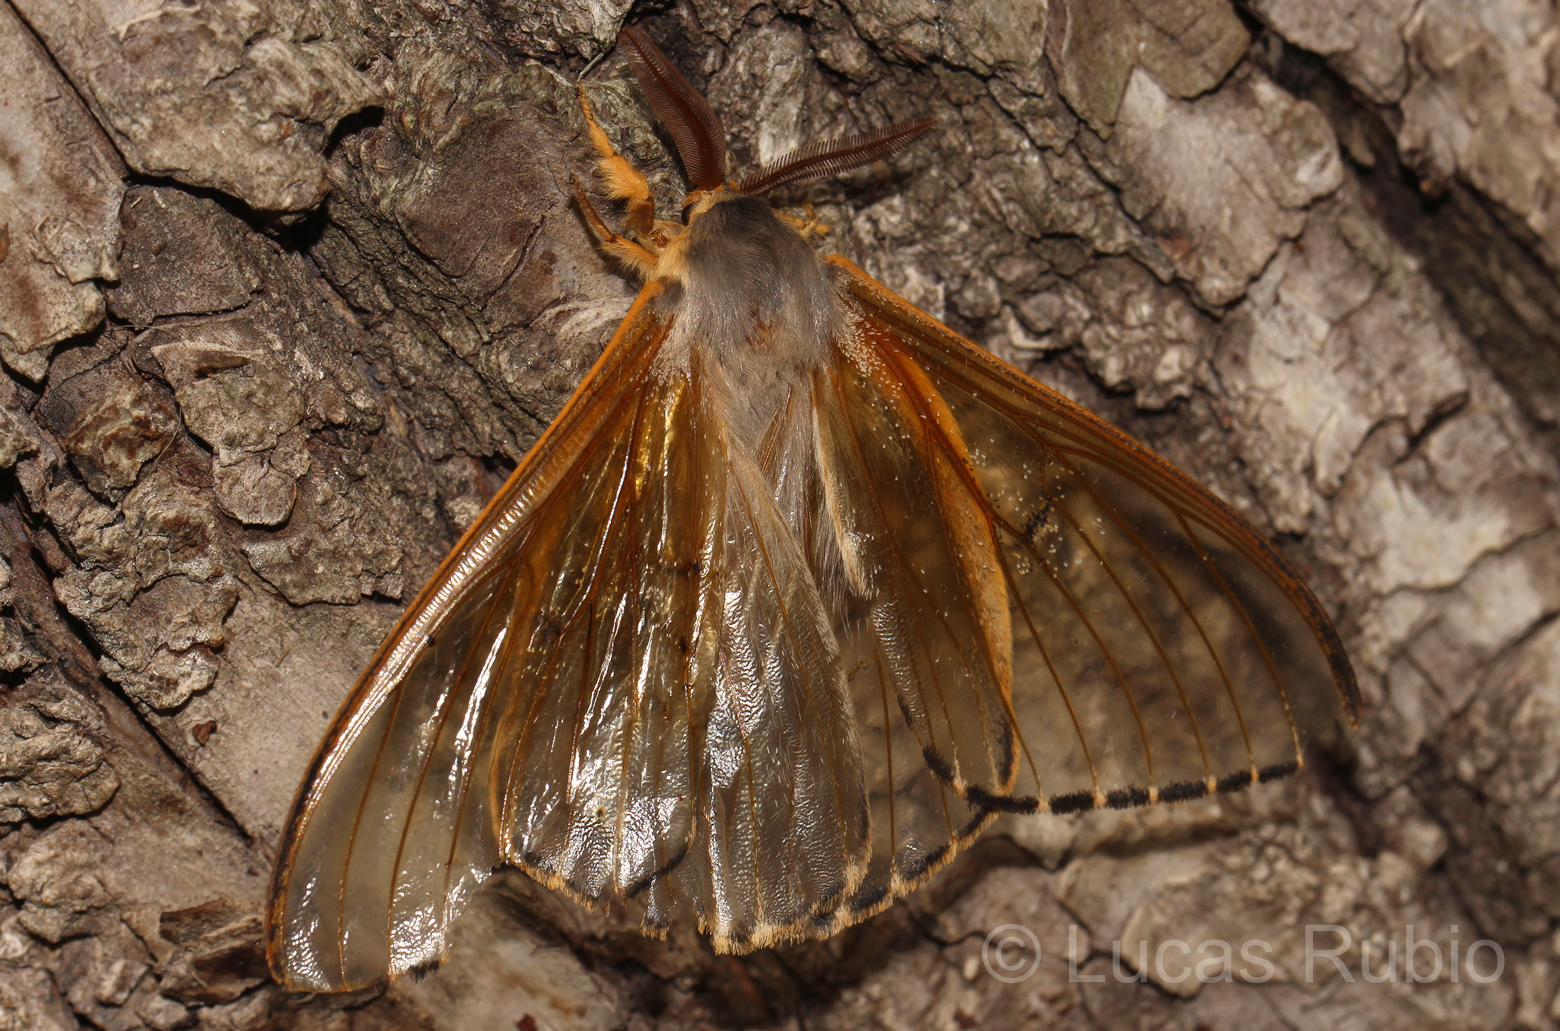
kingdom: Animalia
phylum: Arthropoda
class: Insecta
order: Lepidoptera
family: Saturniidae
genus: Heliconisa
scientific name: Heliconisa pagenstecheri
